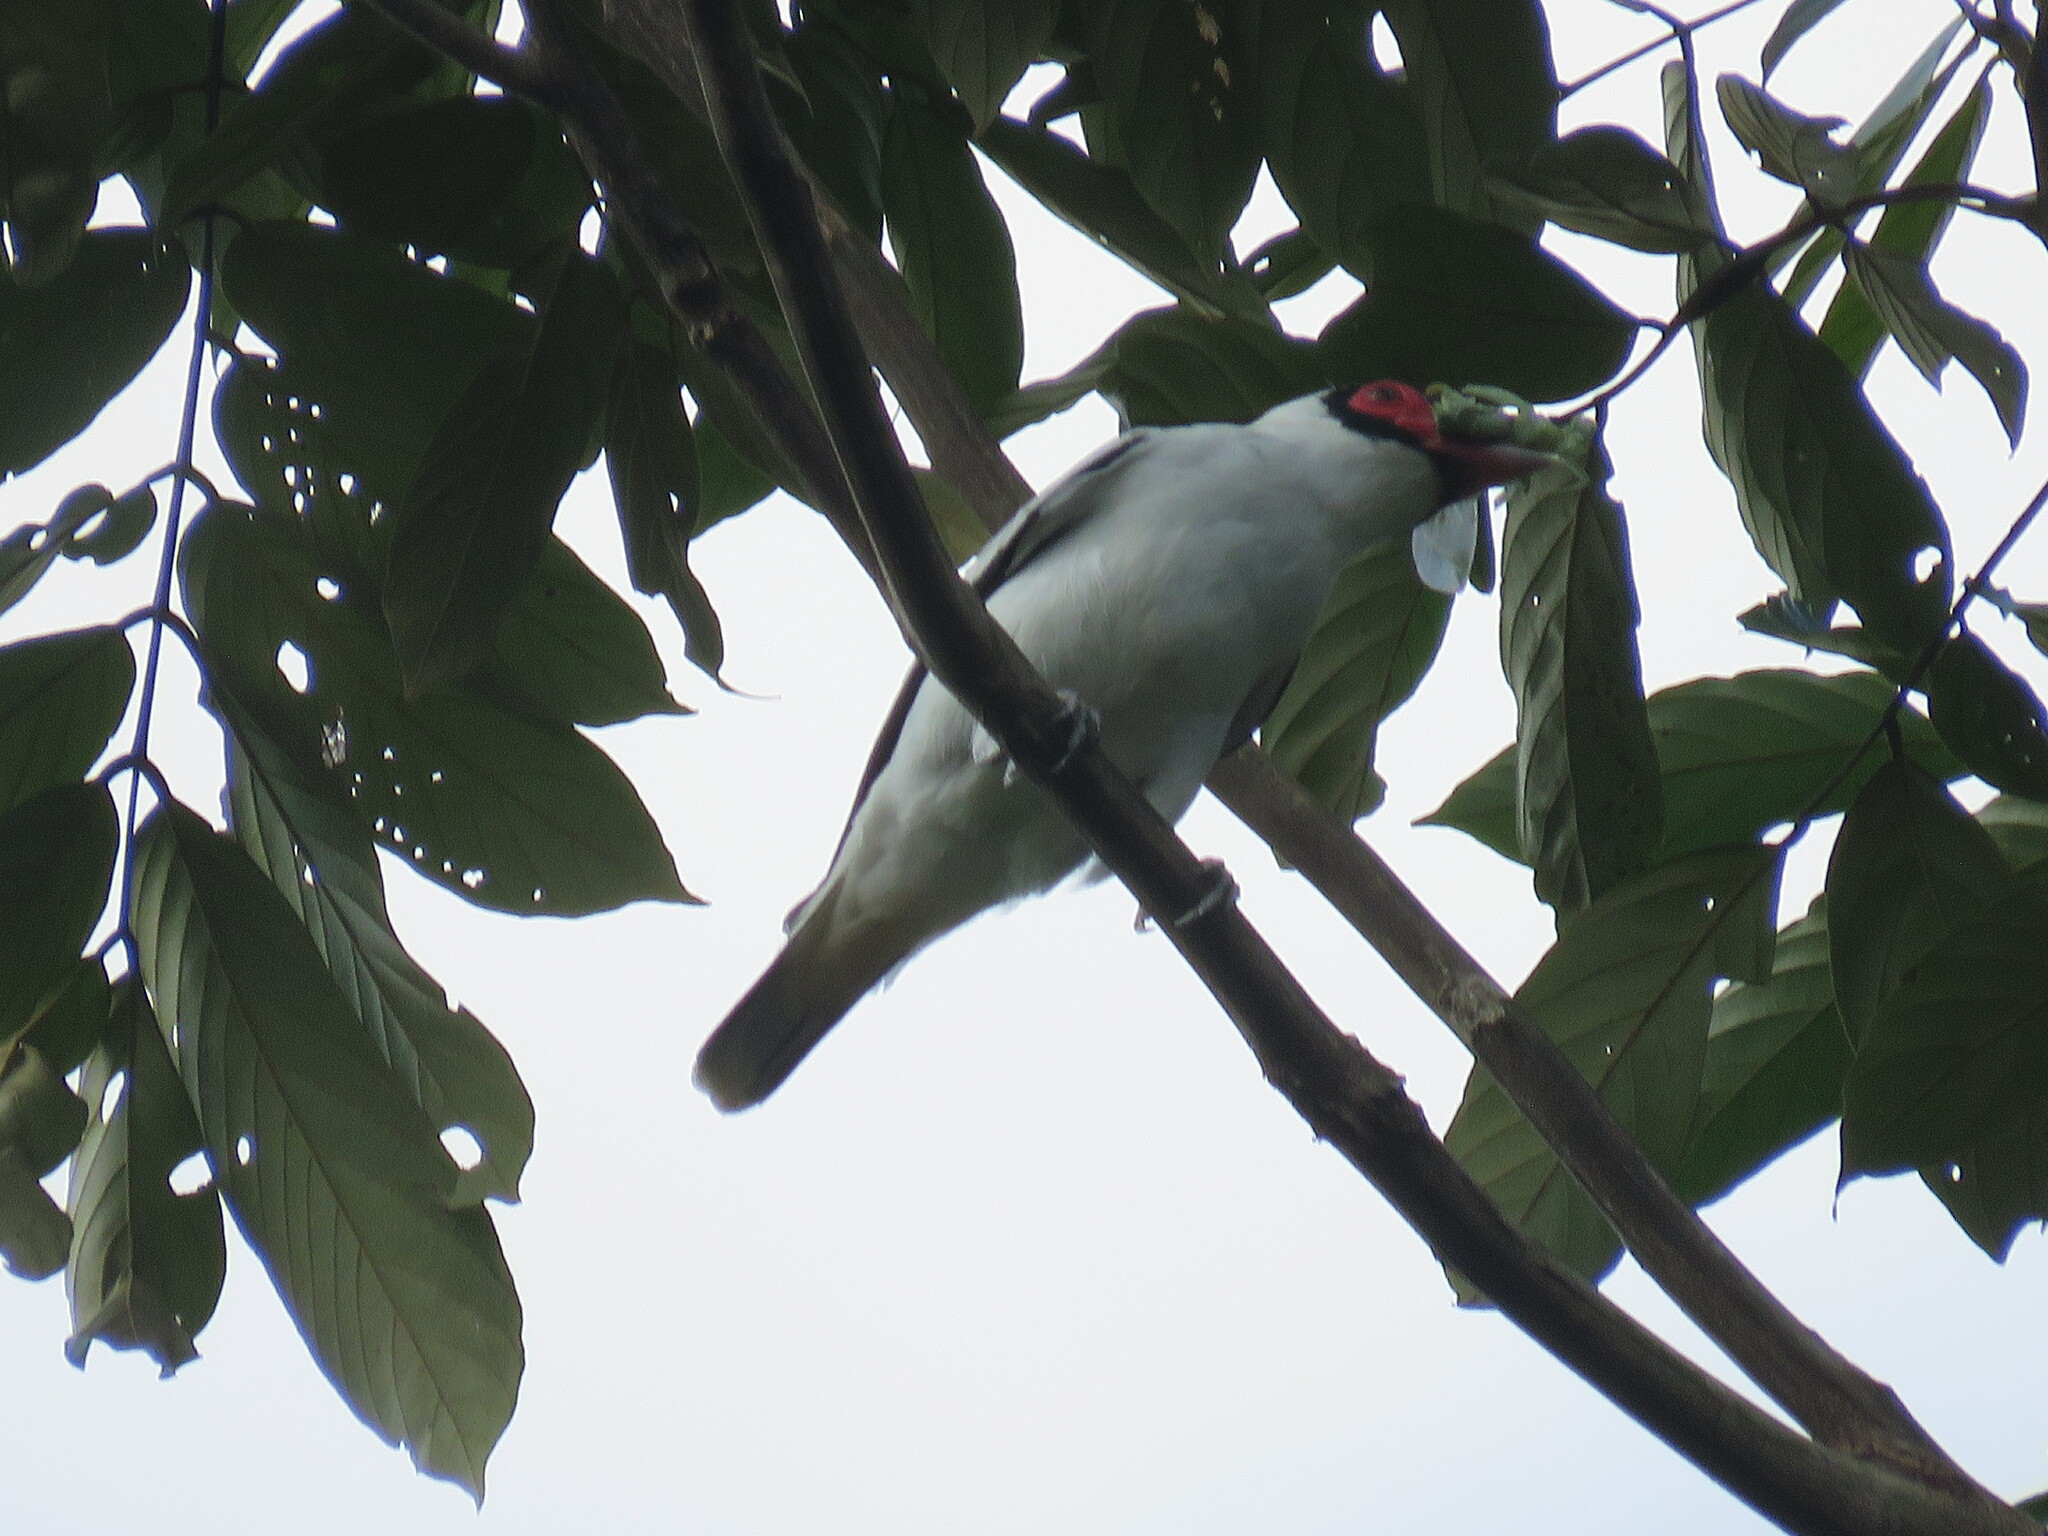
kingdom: Animalia
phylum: Chordata
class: Aves
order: Passeriformes
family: Cotingidae
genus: Tityra
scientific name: Tityra semifasciata
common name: Masked tityra
